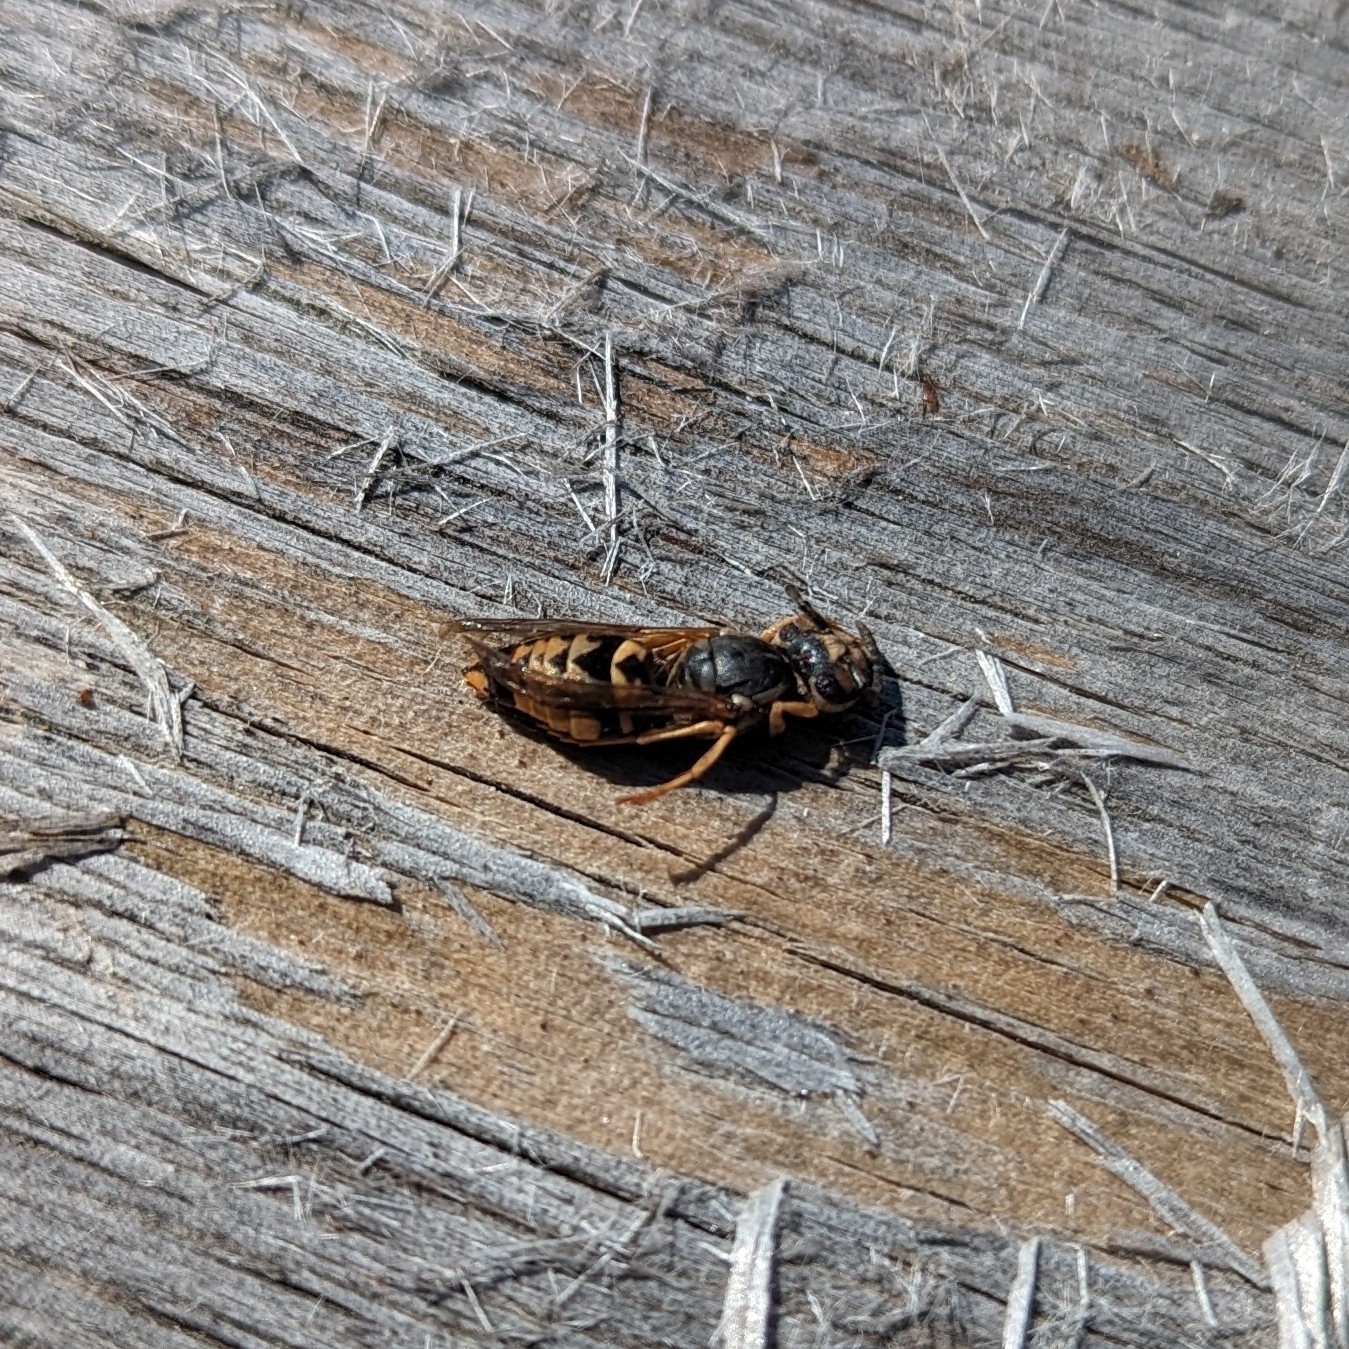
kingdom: Animalia
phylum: Arthropoda
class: Insecta
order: Hymenoptera
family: Vespidae
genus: Vespula
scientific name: Vespula pensylvanica
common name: Western yellowjacket
